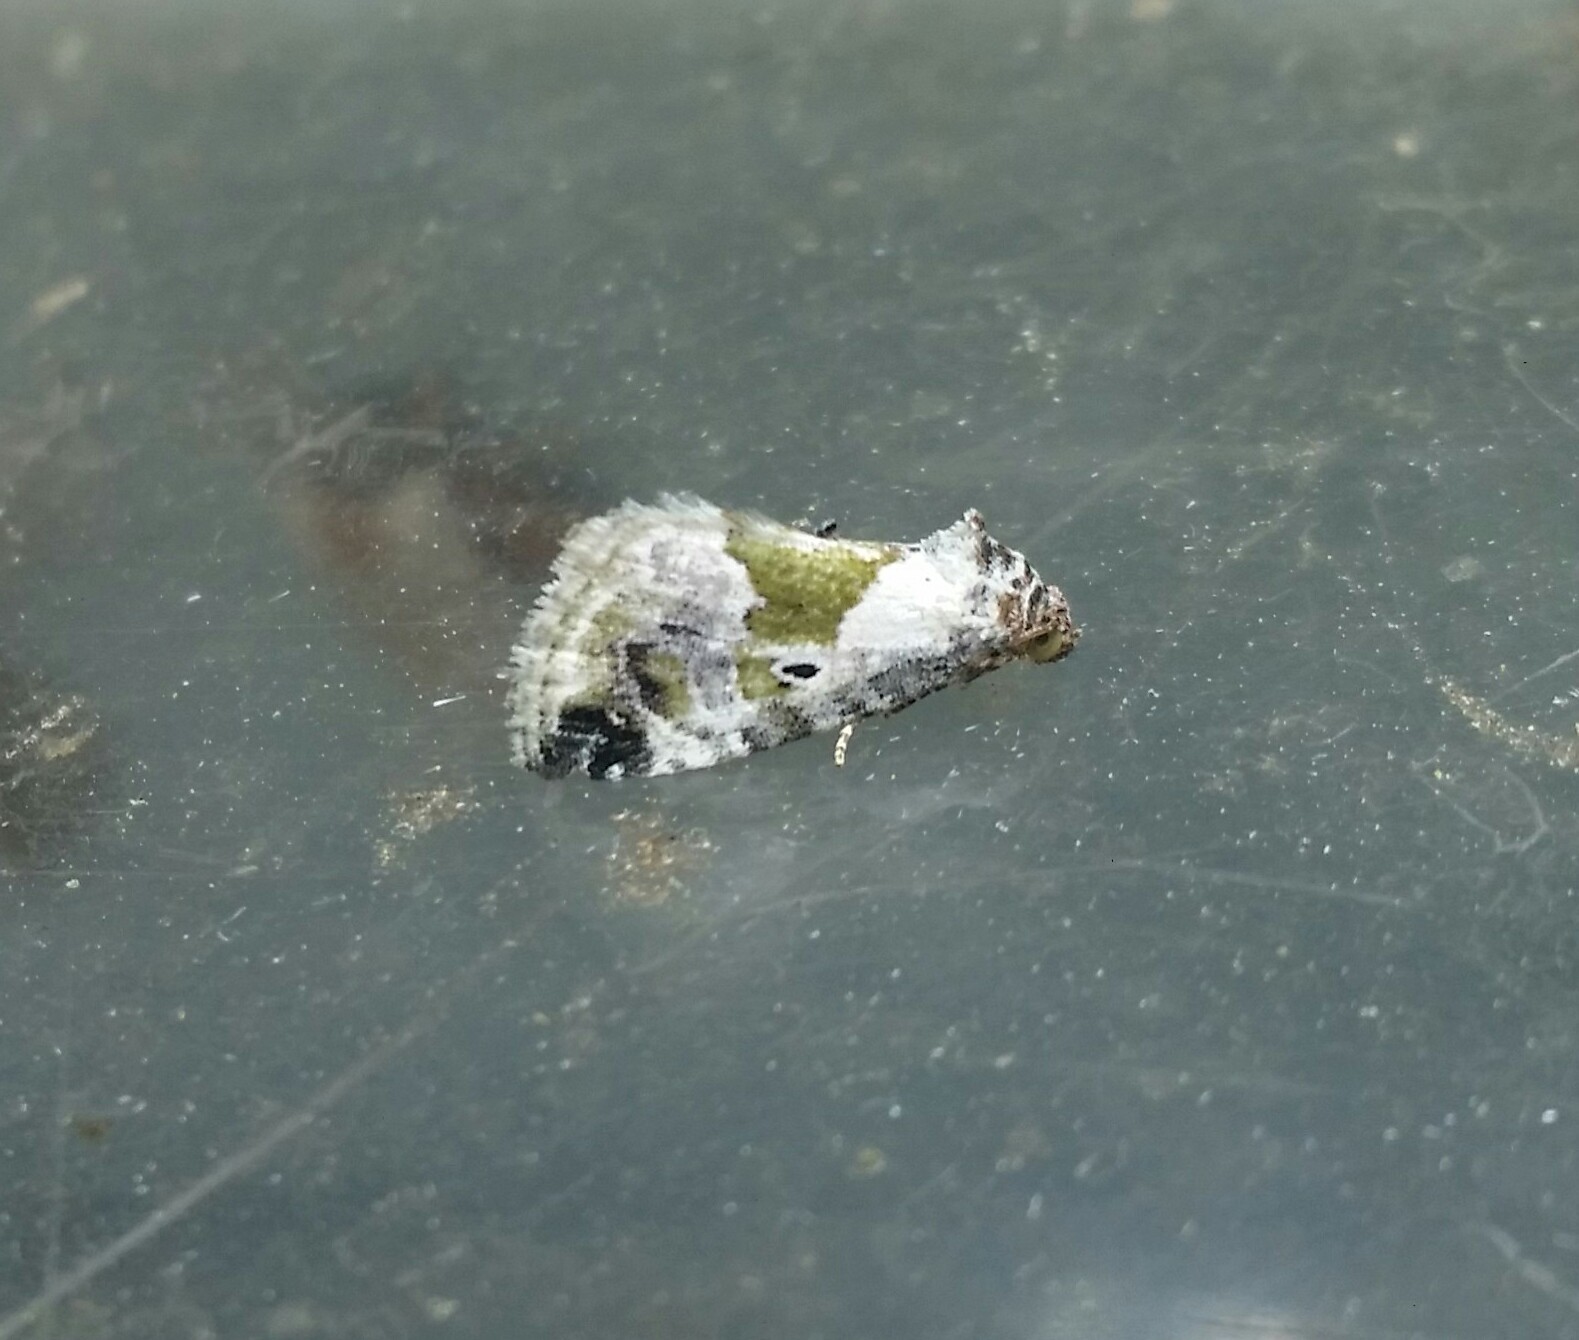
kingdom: Animalia
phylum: Arthropoda
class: Insecta
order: Lepidoptera
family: Noctuidae
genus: Maliattha
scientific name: Maliattha synochitis
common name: Black-dotted glyph
